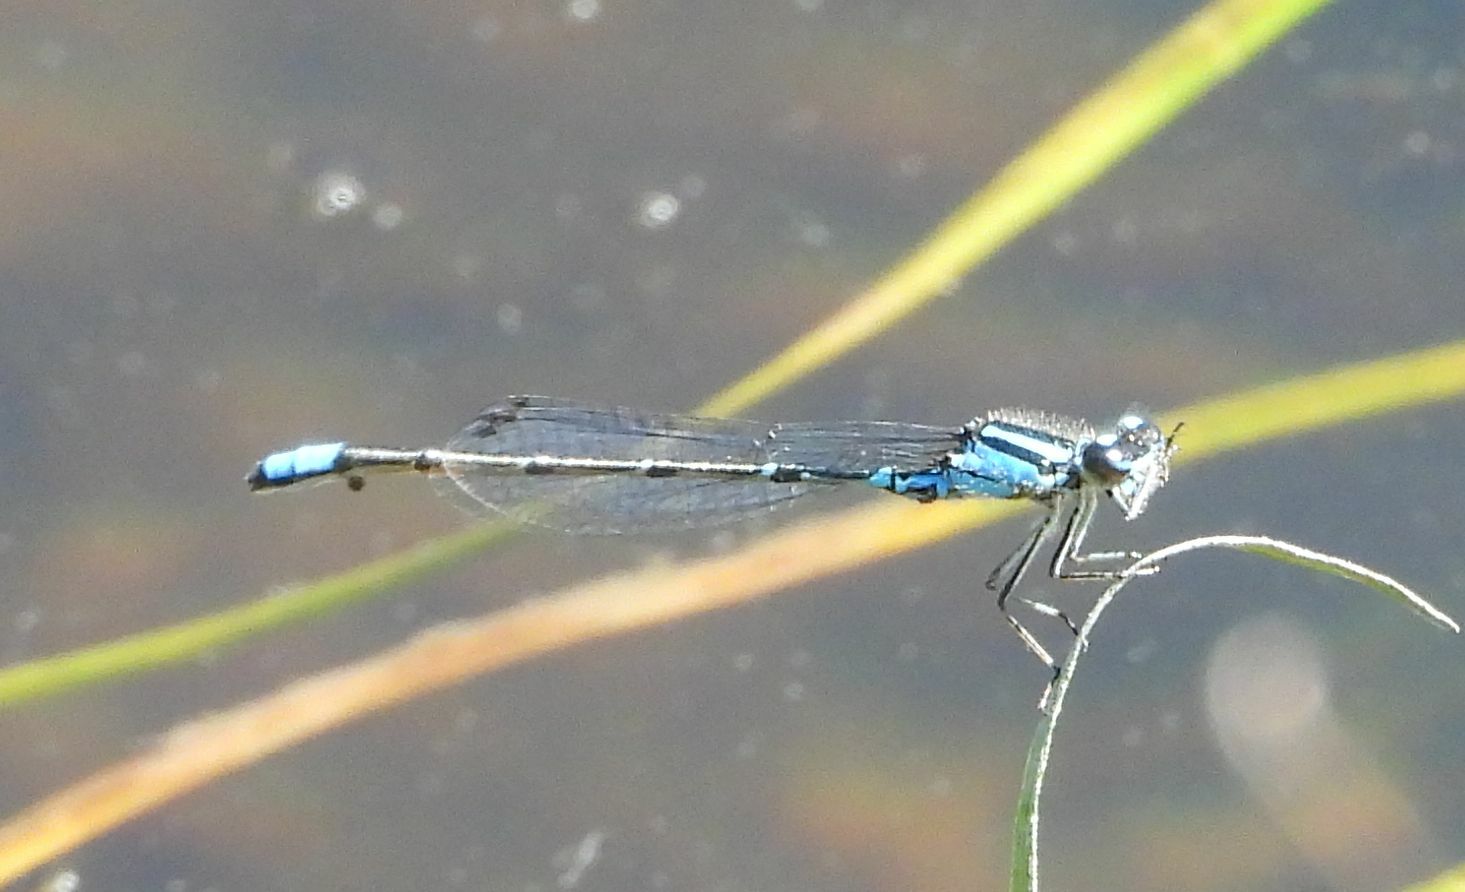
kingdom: Animalia
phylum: Arthropoda
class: Insecta
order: Odonata
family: Coenagrionidae
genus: Enallagma
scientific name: Enallagma geminatum
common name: Skimming bluet
